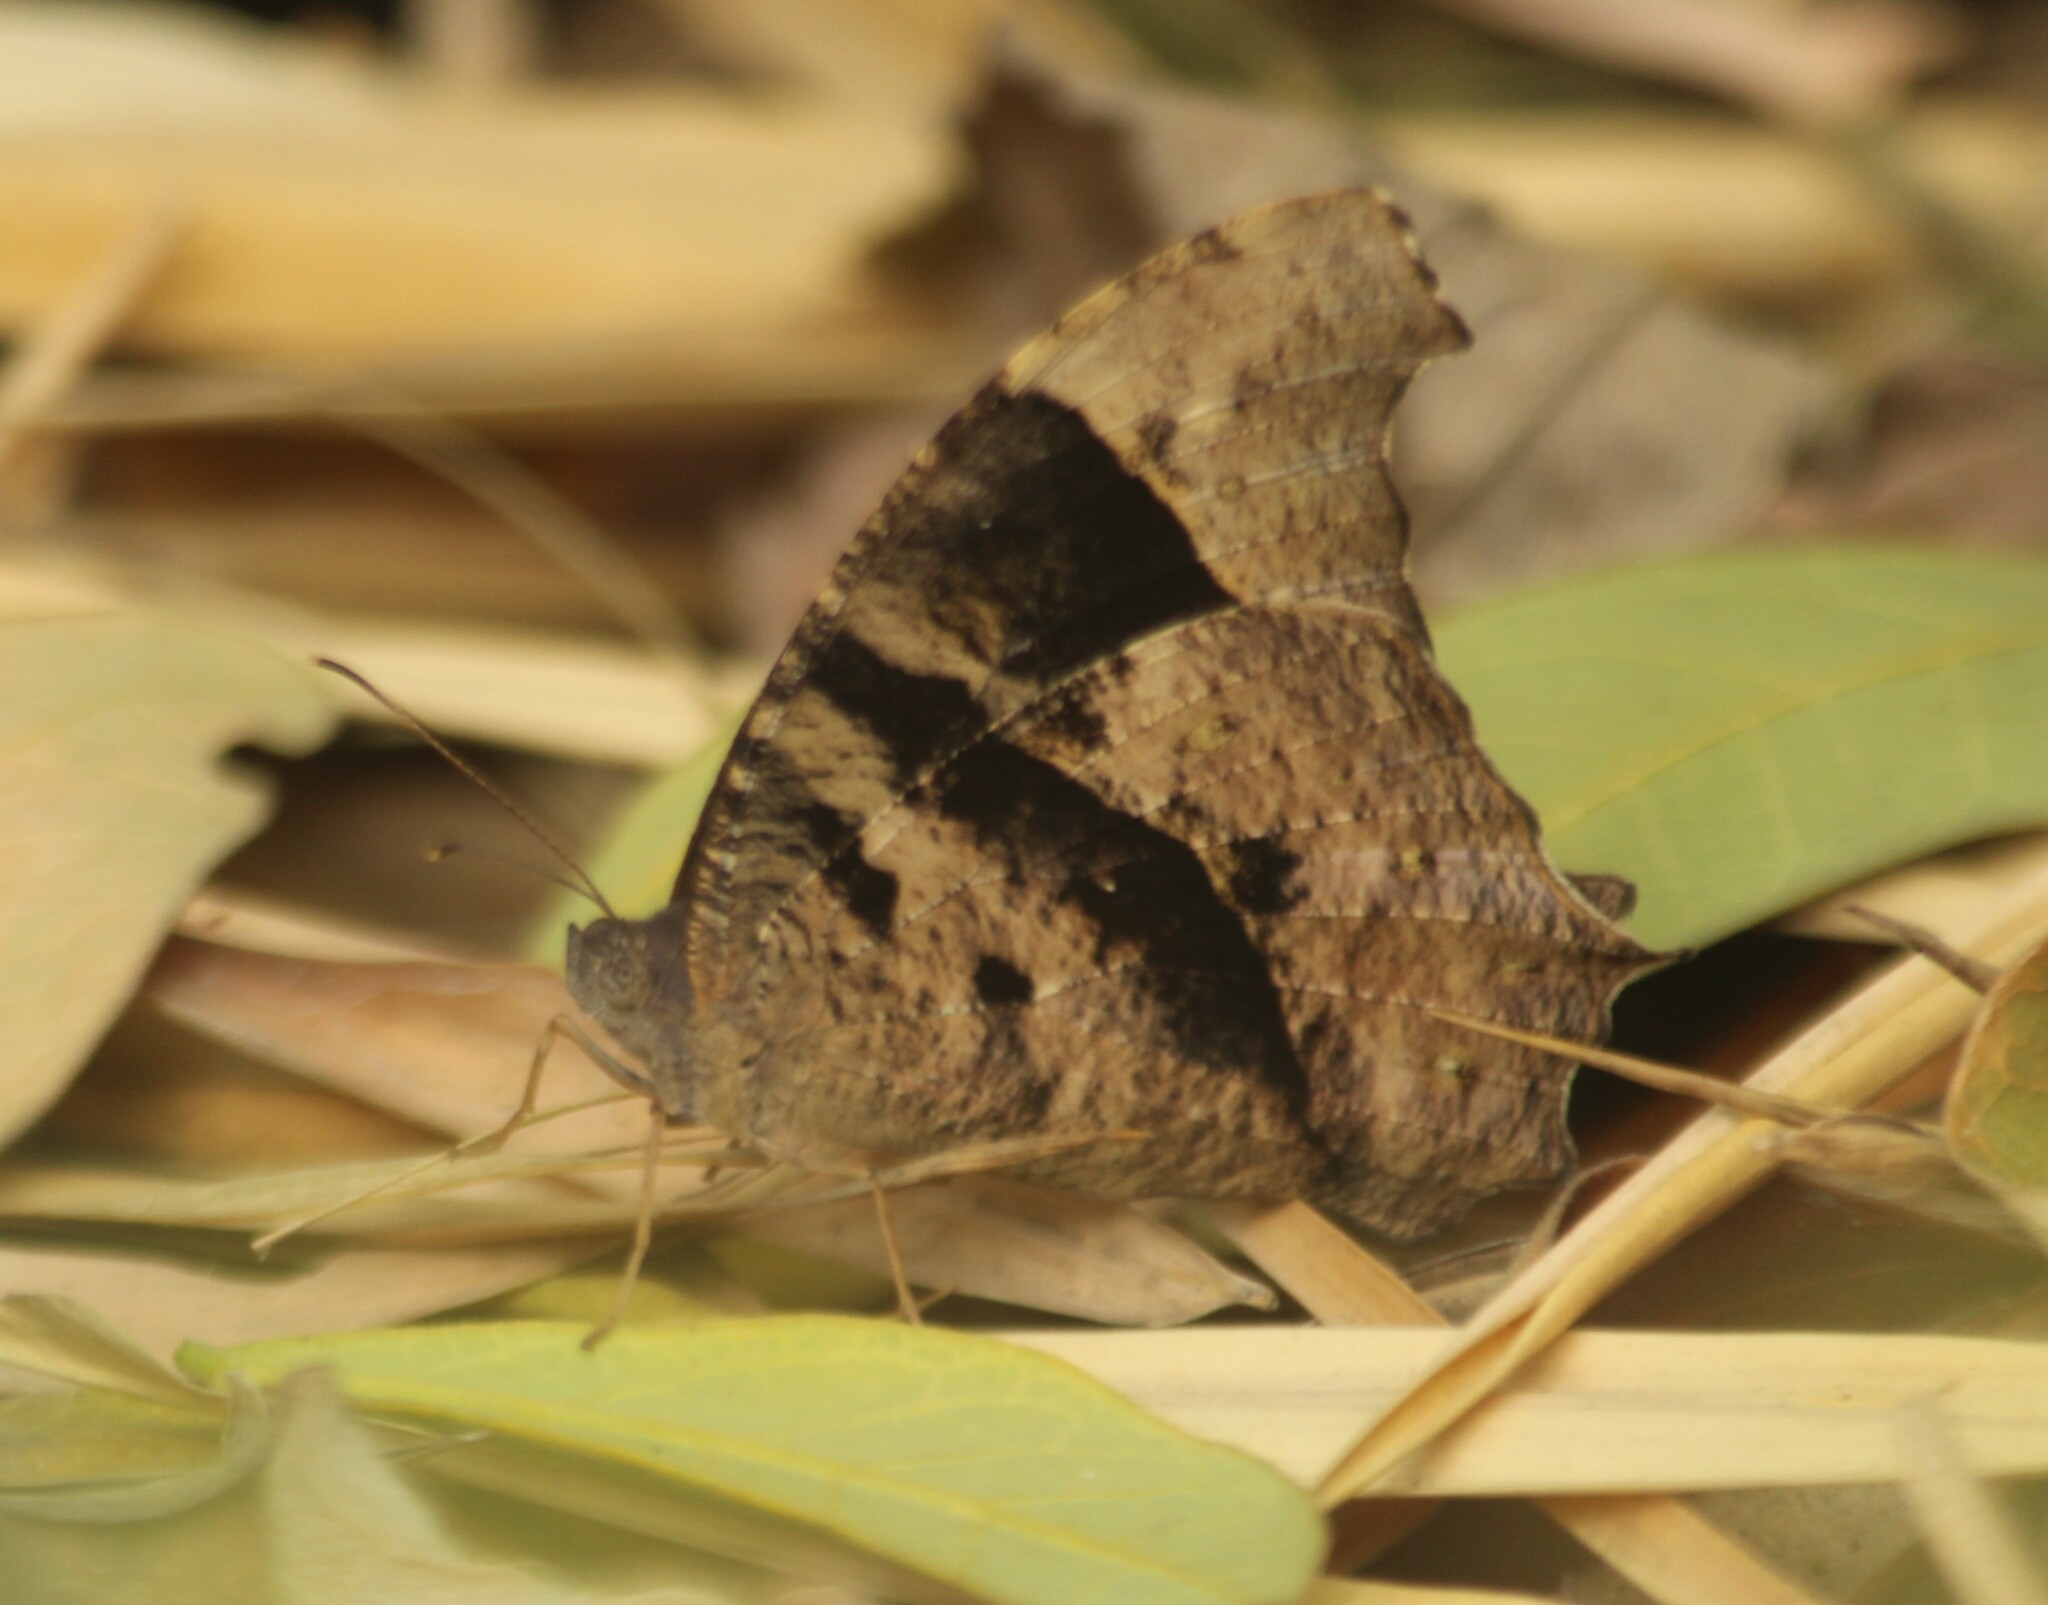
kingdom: Animalia
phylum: Arthropoda
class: Insecta
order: Lepidoptera
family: Nymphalidae
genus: Melanitis
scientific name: Melanitis leda
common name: Twilight brown
